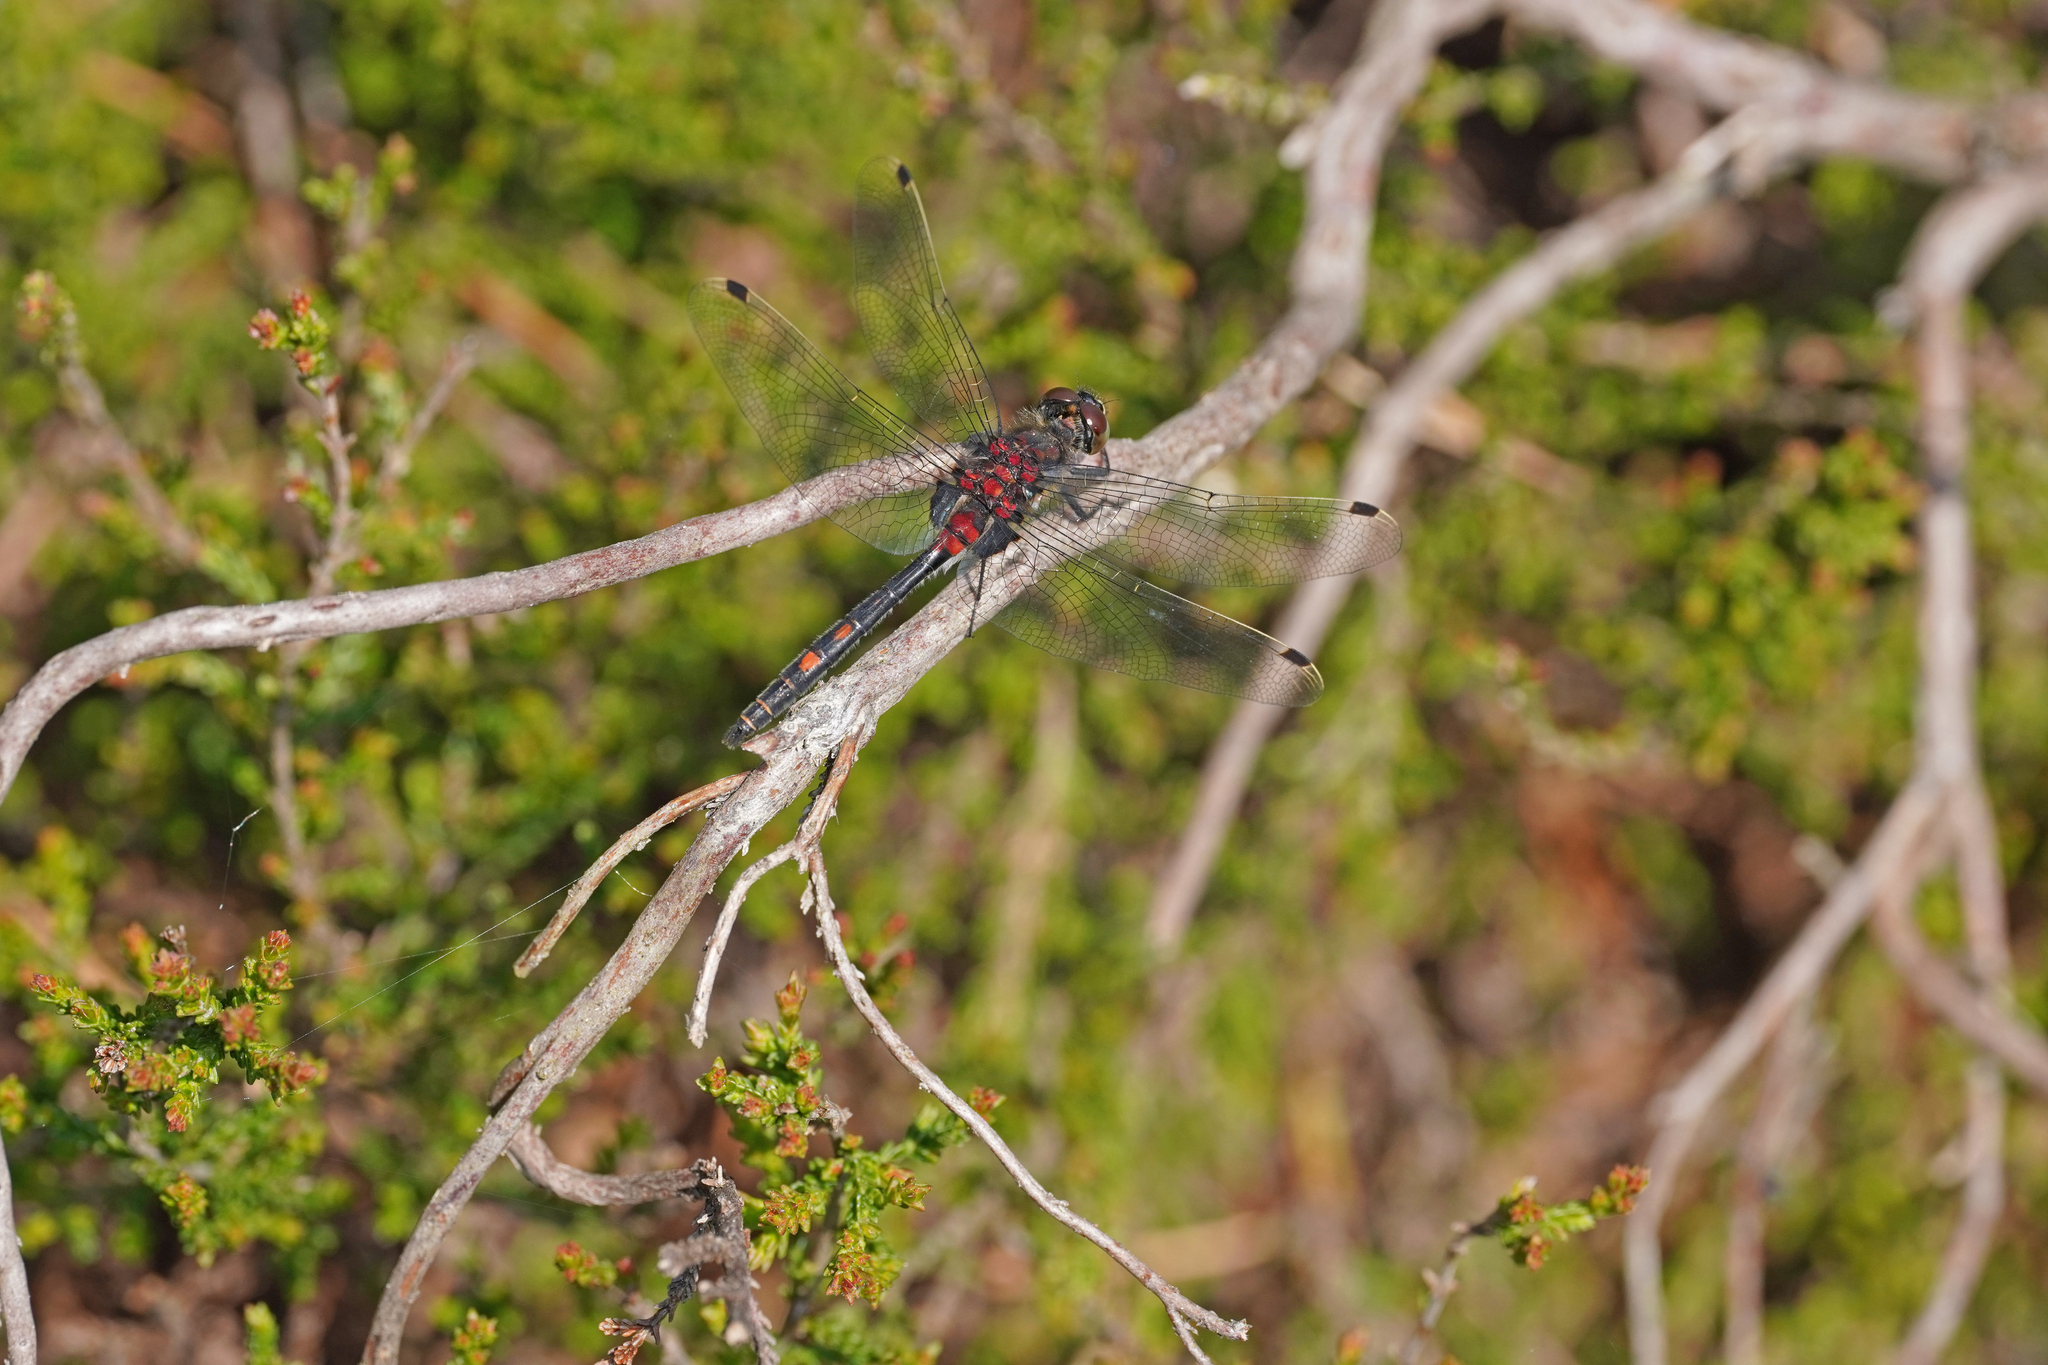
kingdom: Animalia
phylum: Arthropoda
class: Insecta
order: Odonata
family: Libellulidae
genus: Leucorrhinia
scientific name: Leucorrhinia dubia
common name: White-faced darter
